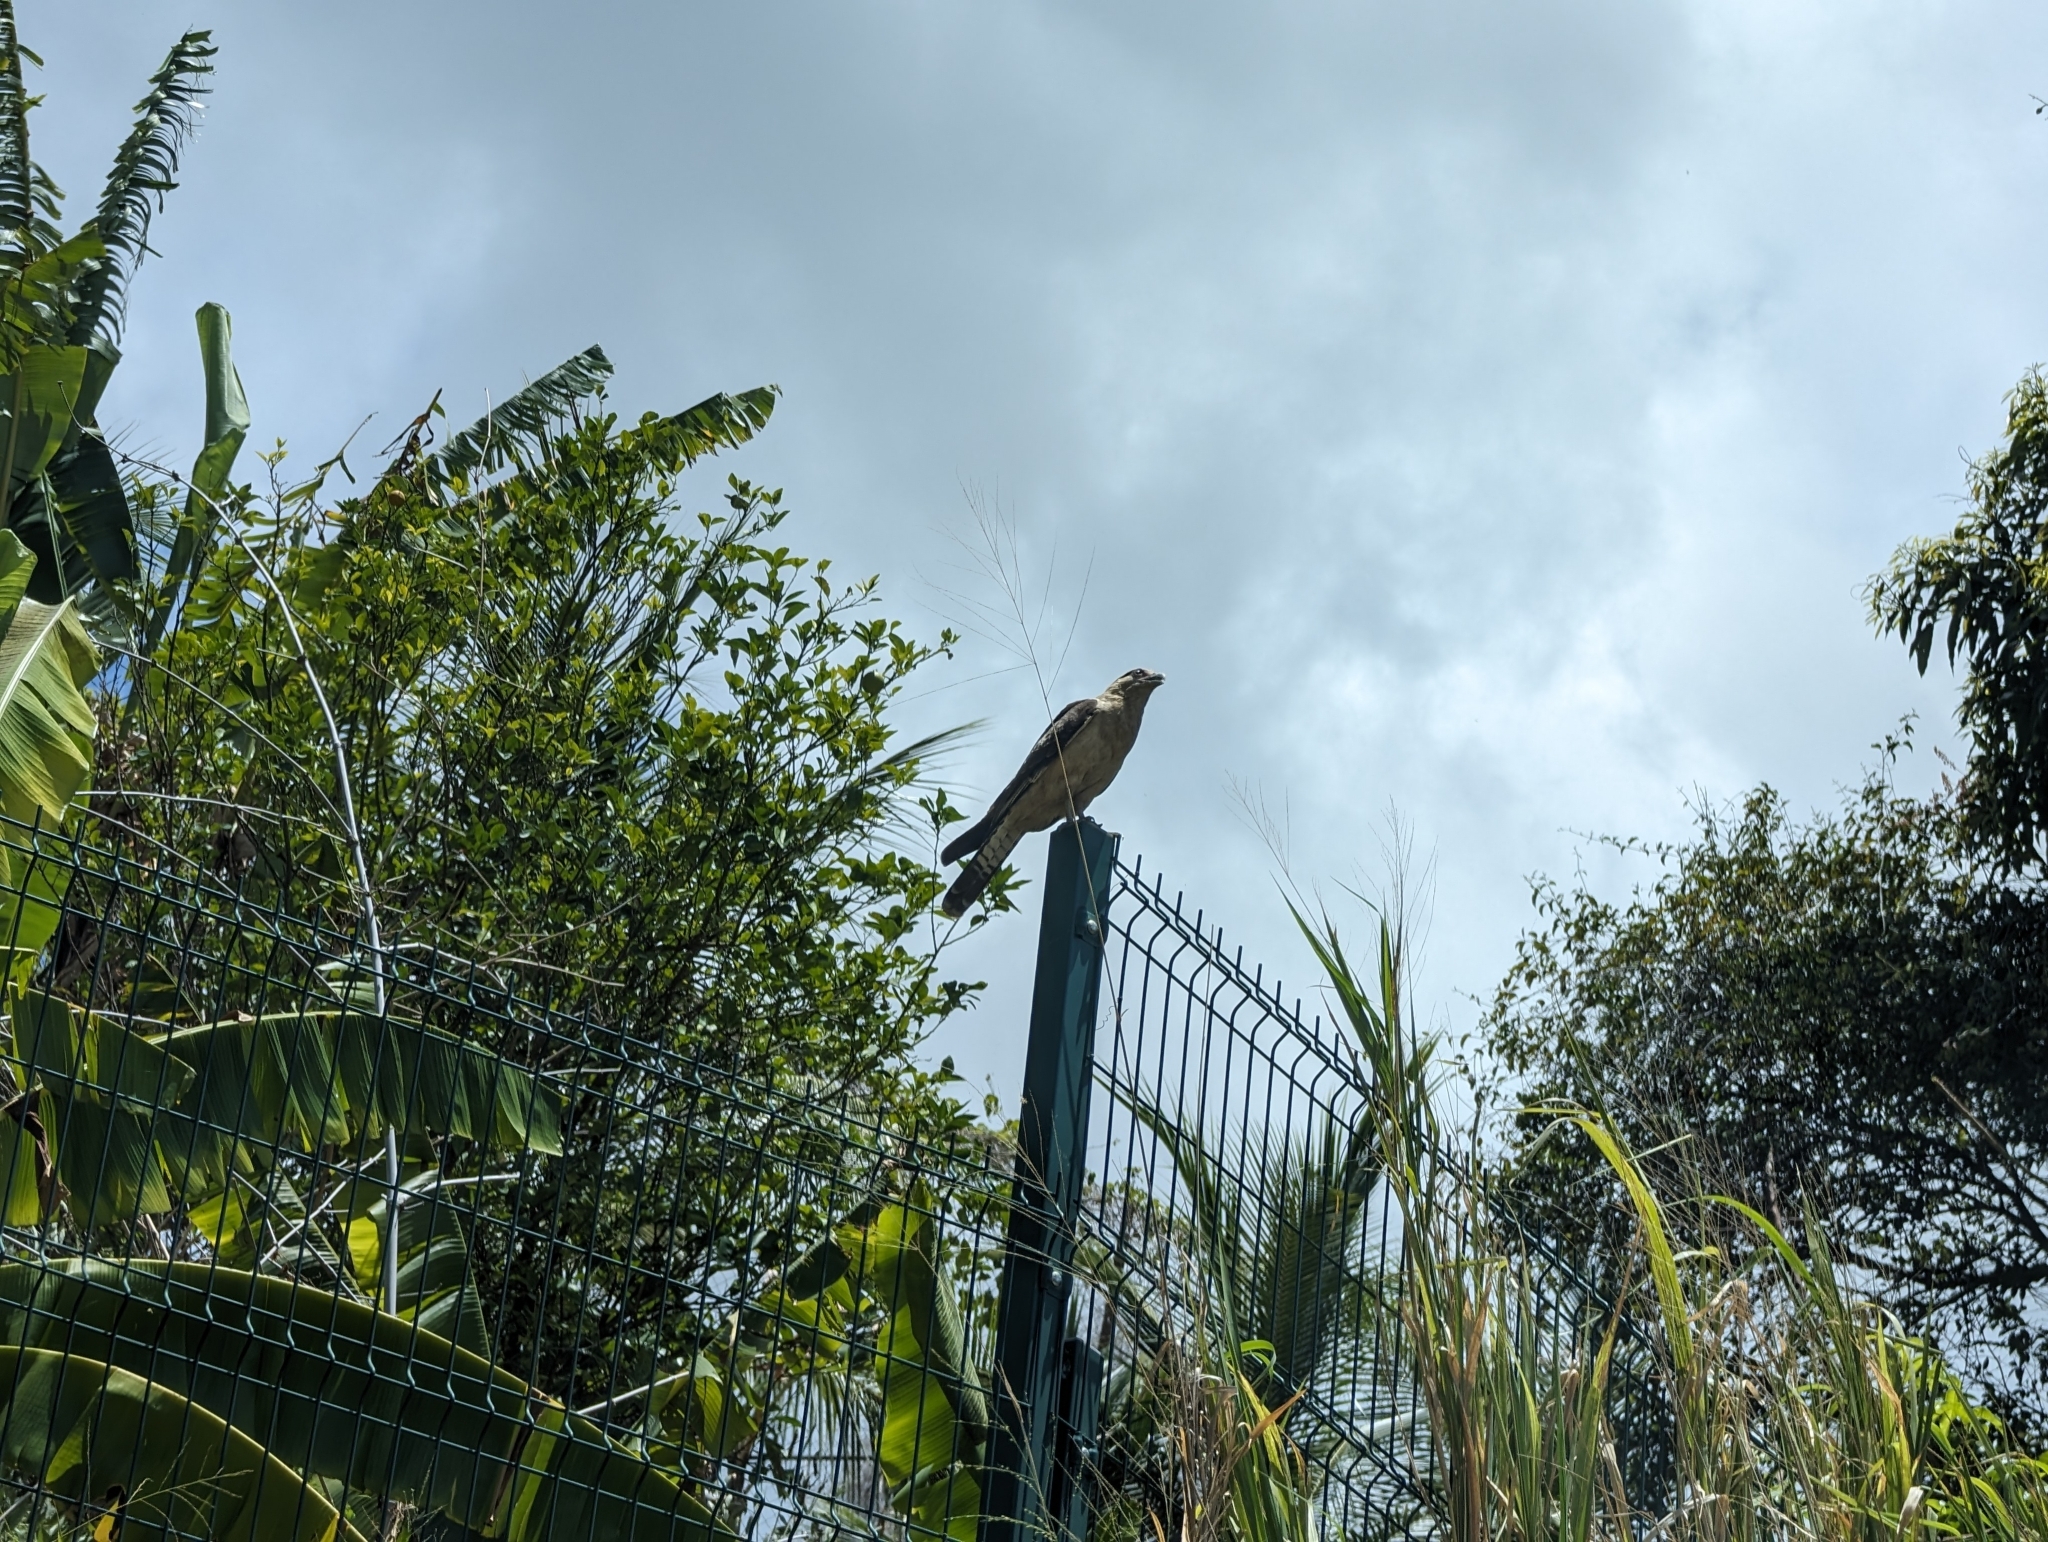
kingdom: Animalia
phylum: Chordata
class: Aves
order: Falconiformes
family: Falconidae
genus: Daptrius
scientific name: Daptrius
